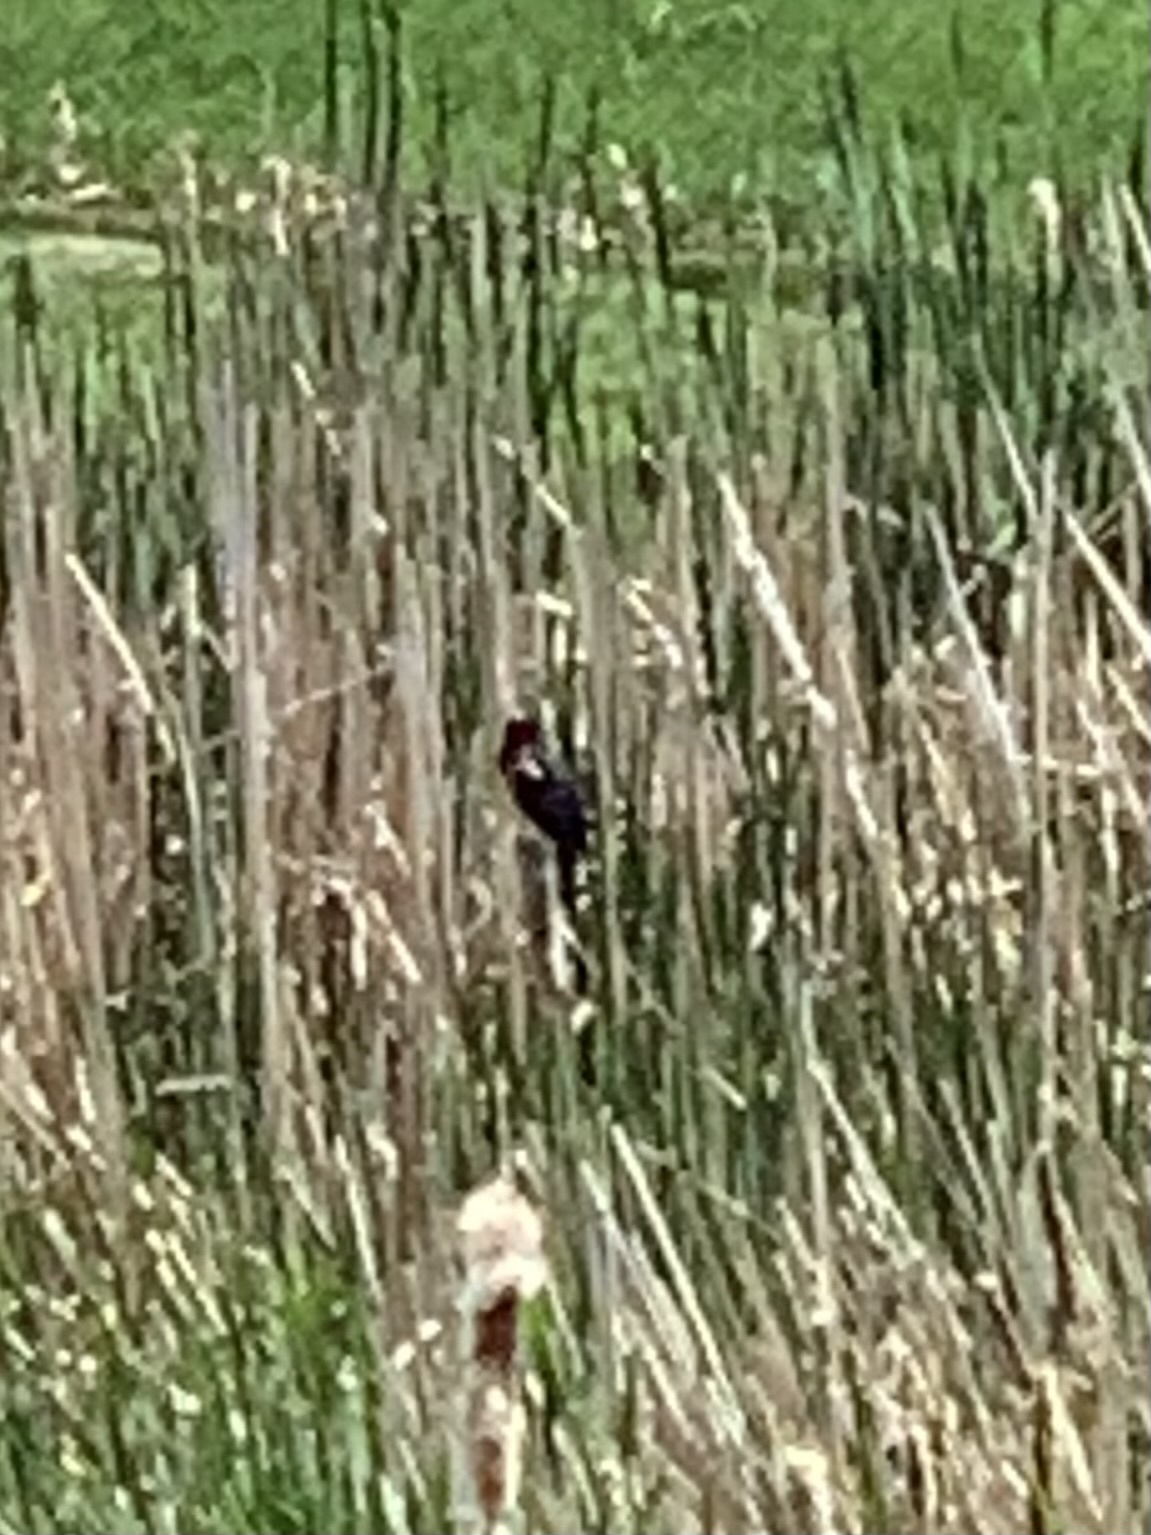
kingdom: Animalia
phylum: Chordata
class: Aves
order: Passeriformes
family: Icteridae
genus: Agelaius
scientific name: Agelaius phoeniceus
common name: Red-winged blackbird
